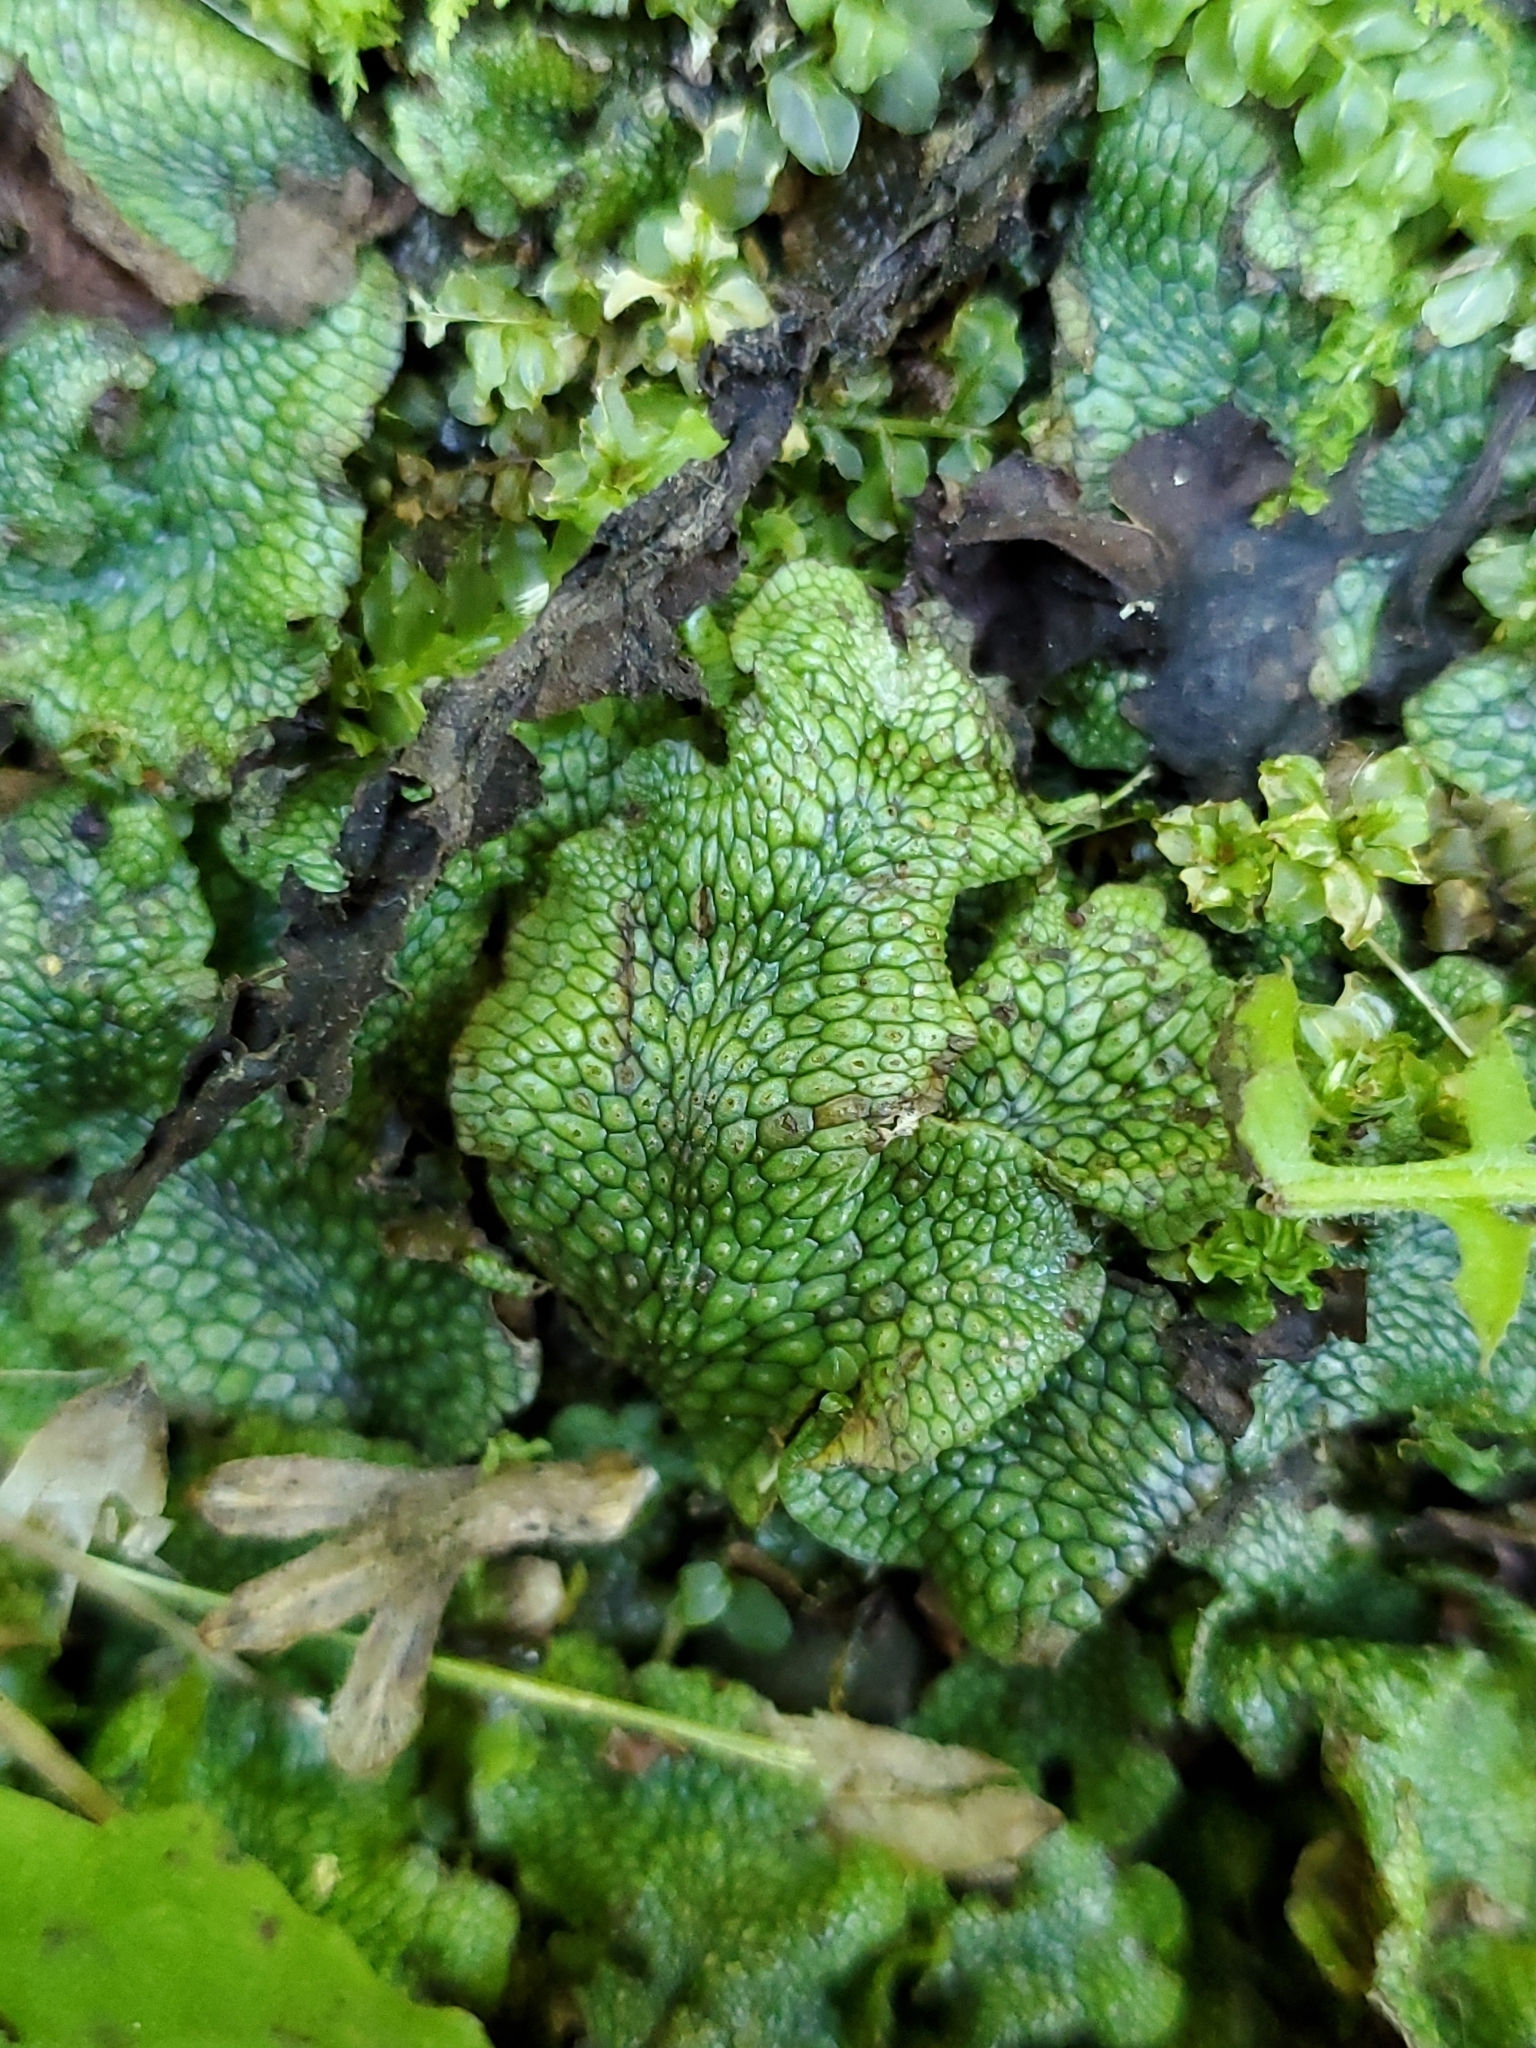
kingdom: Plantae
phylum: Marchantiophyta
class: Marchantiopsida
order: Marchantiales
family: Conocephalaceae
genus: Conocephalum
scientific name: Conocephalum salebrosum
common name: Cat-tongue liverwort
